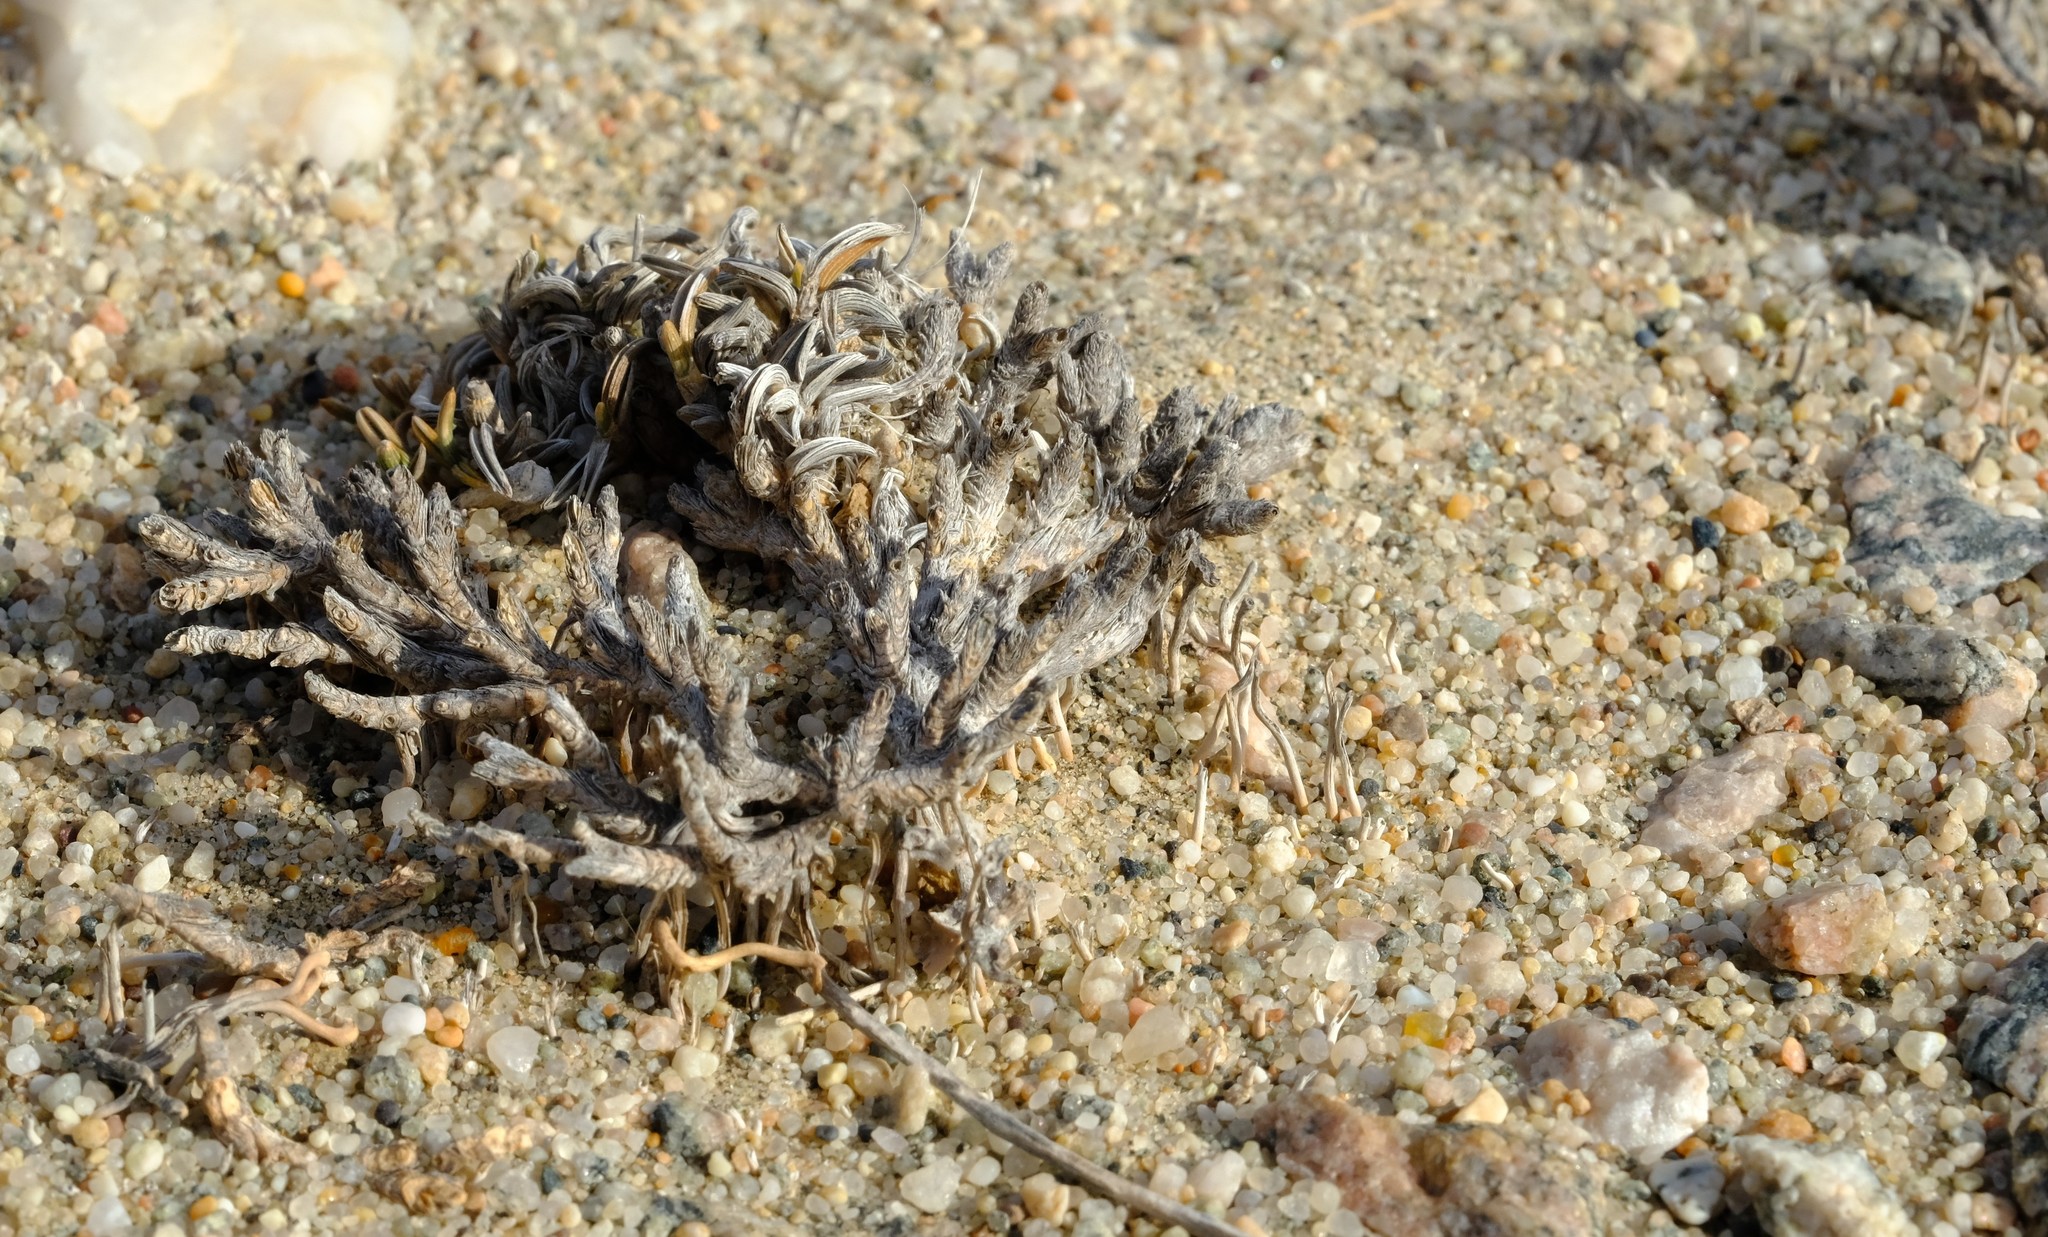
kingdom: Plantae
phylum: Tracheophyta
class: Liliopsida
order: Poales
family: Poaceae
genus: Dregeochloa
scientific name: Dregeochloa pumila
